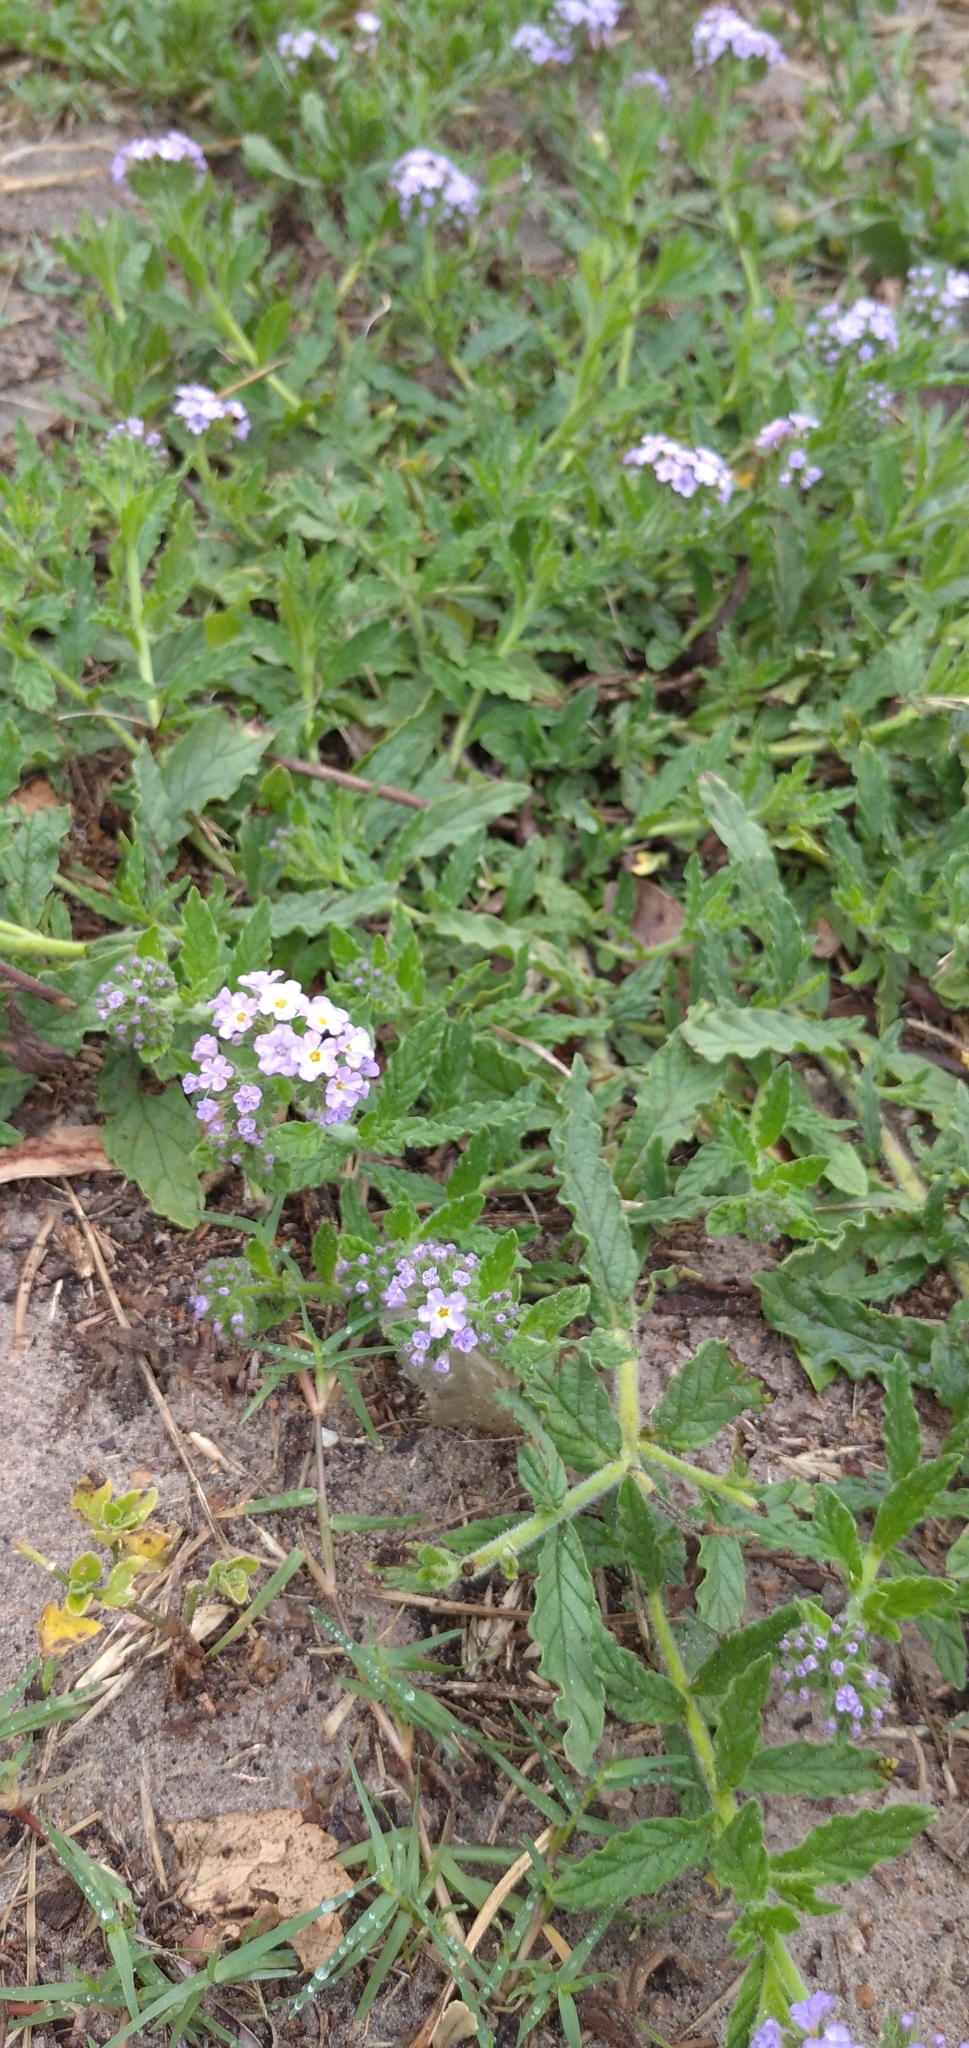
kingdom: Plantae
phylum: Tracheophyta
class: Magnoliopsida
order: Boraginales
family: Heliotropiaceae
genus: Heliotropium
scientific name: Heliotropium amplexicaule
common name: Clasping heliotrope
